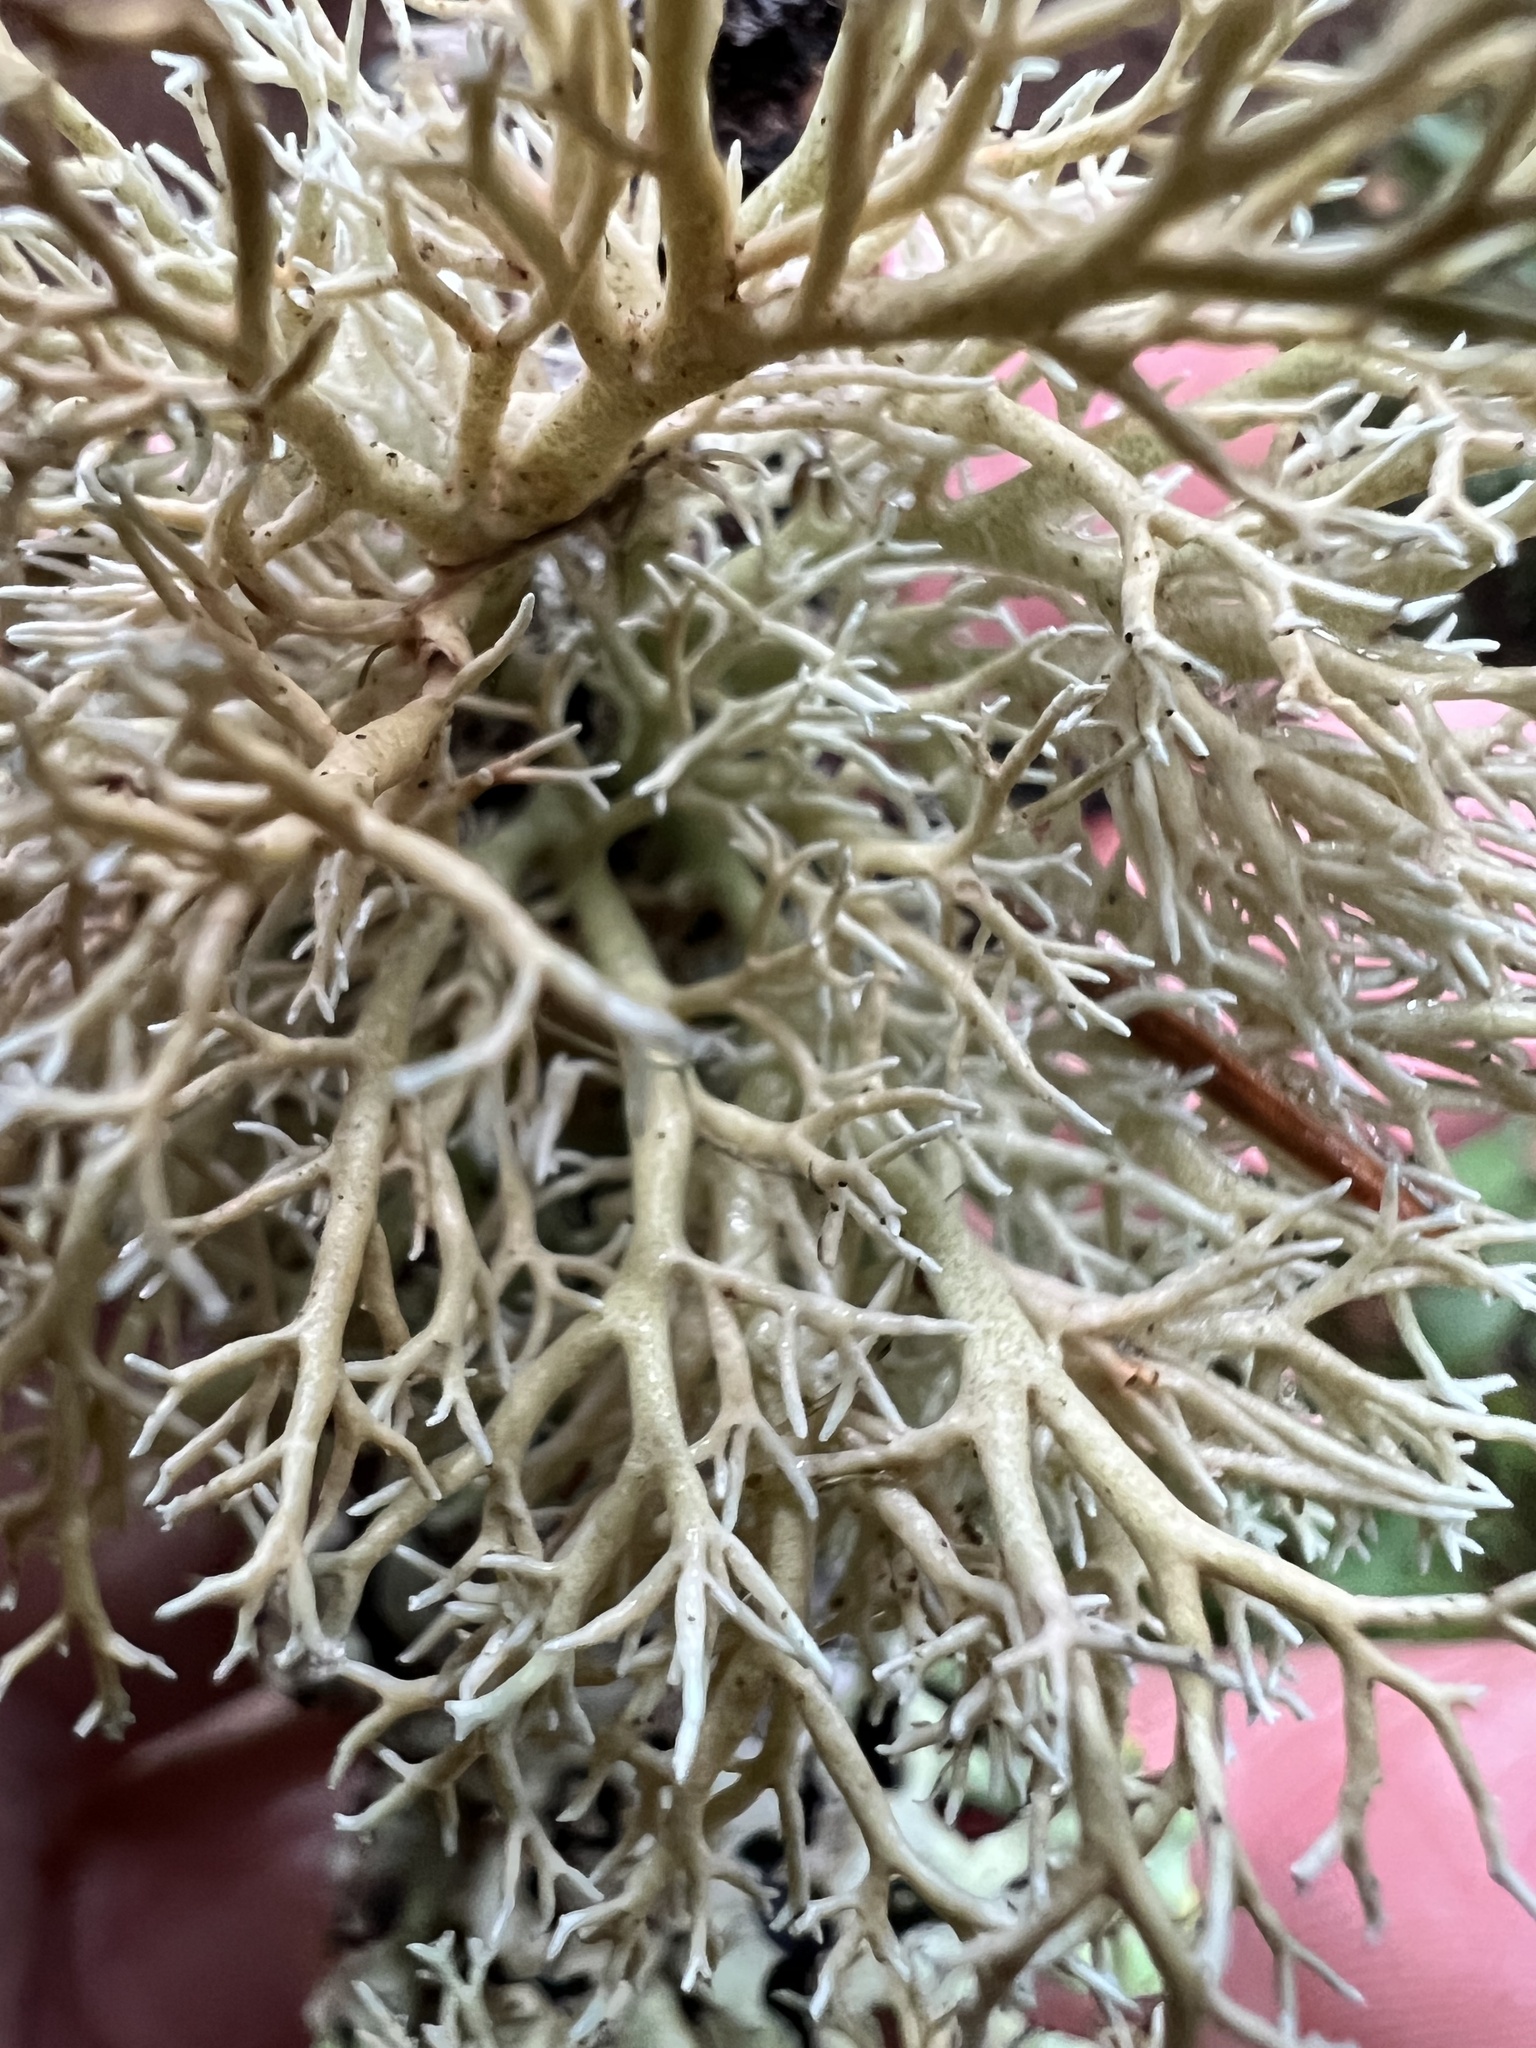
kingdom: Fungi
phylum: Ascomycota
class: Lecanoromycetes
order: Lecanorales
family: Sphaerophoraceae
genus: Sphaerophorus
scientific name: Sphaerophorus venerabilis
